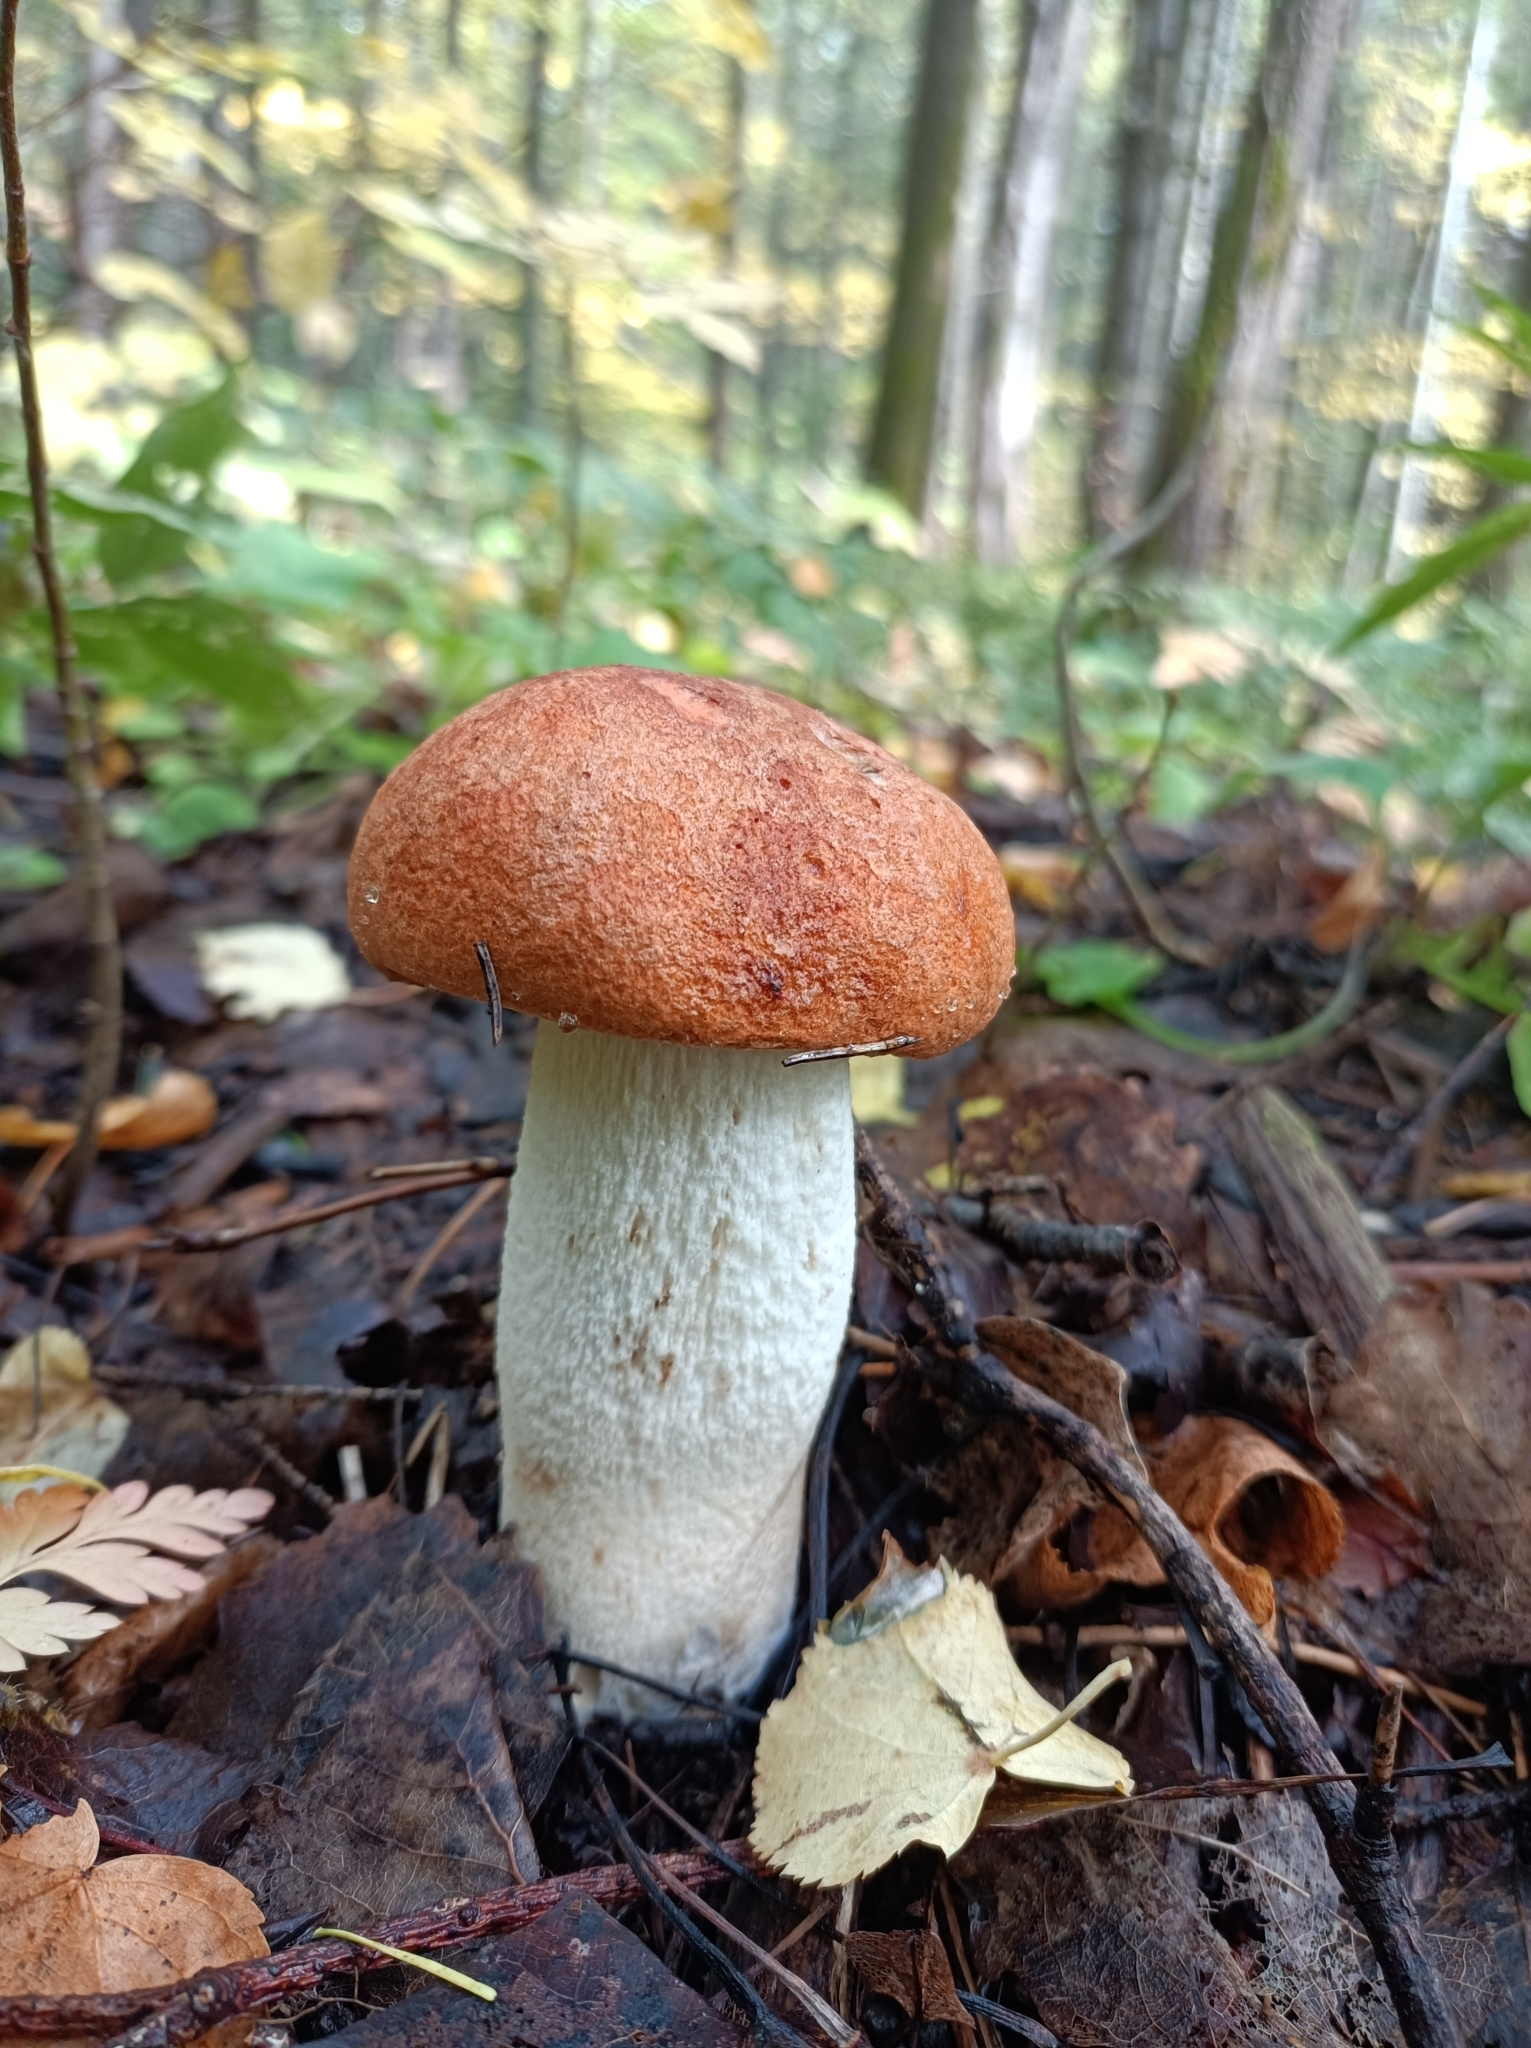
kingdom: Fungi
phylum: Basidiomycota
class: Agaricomycetes
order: Boletales
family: Boletaceae
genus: Leccinum
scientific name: Leccinum albostipitatum
